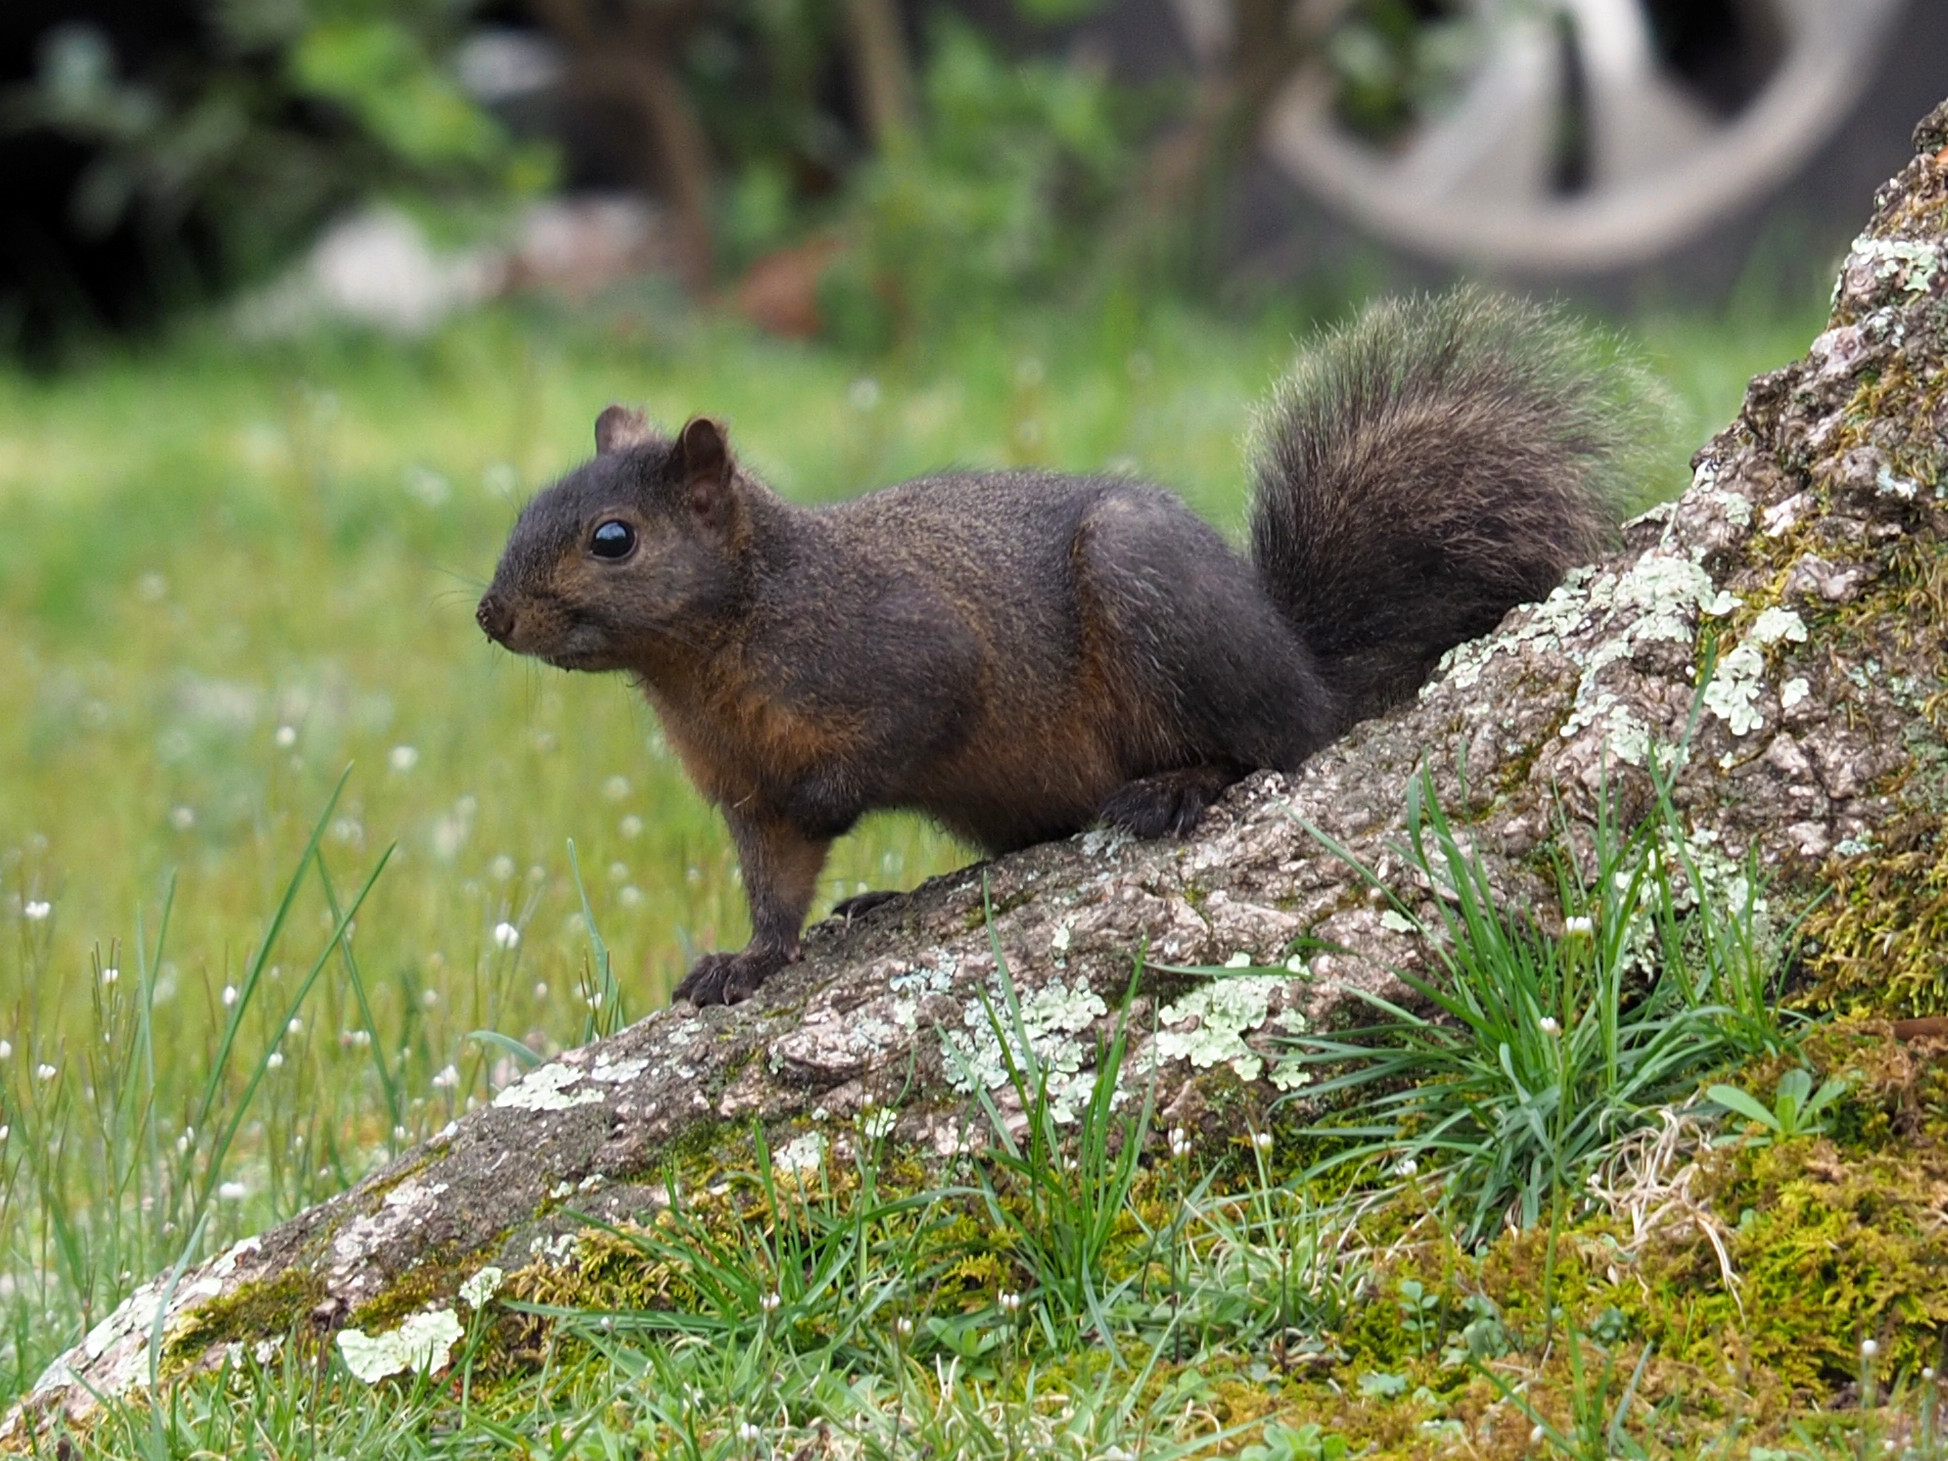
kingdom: Animalia
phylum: Chordata
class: Mammalia
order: Rodentia
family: Sciuridae
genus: Sciurus
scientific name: Sciurus carolinensis
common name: Eastern gray squirrel
